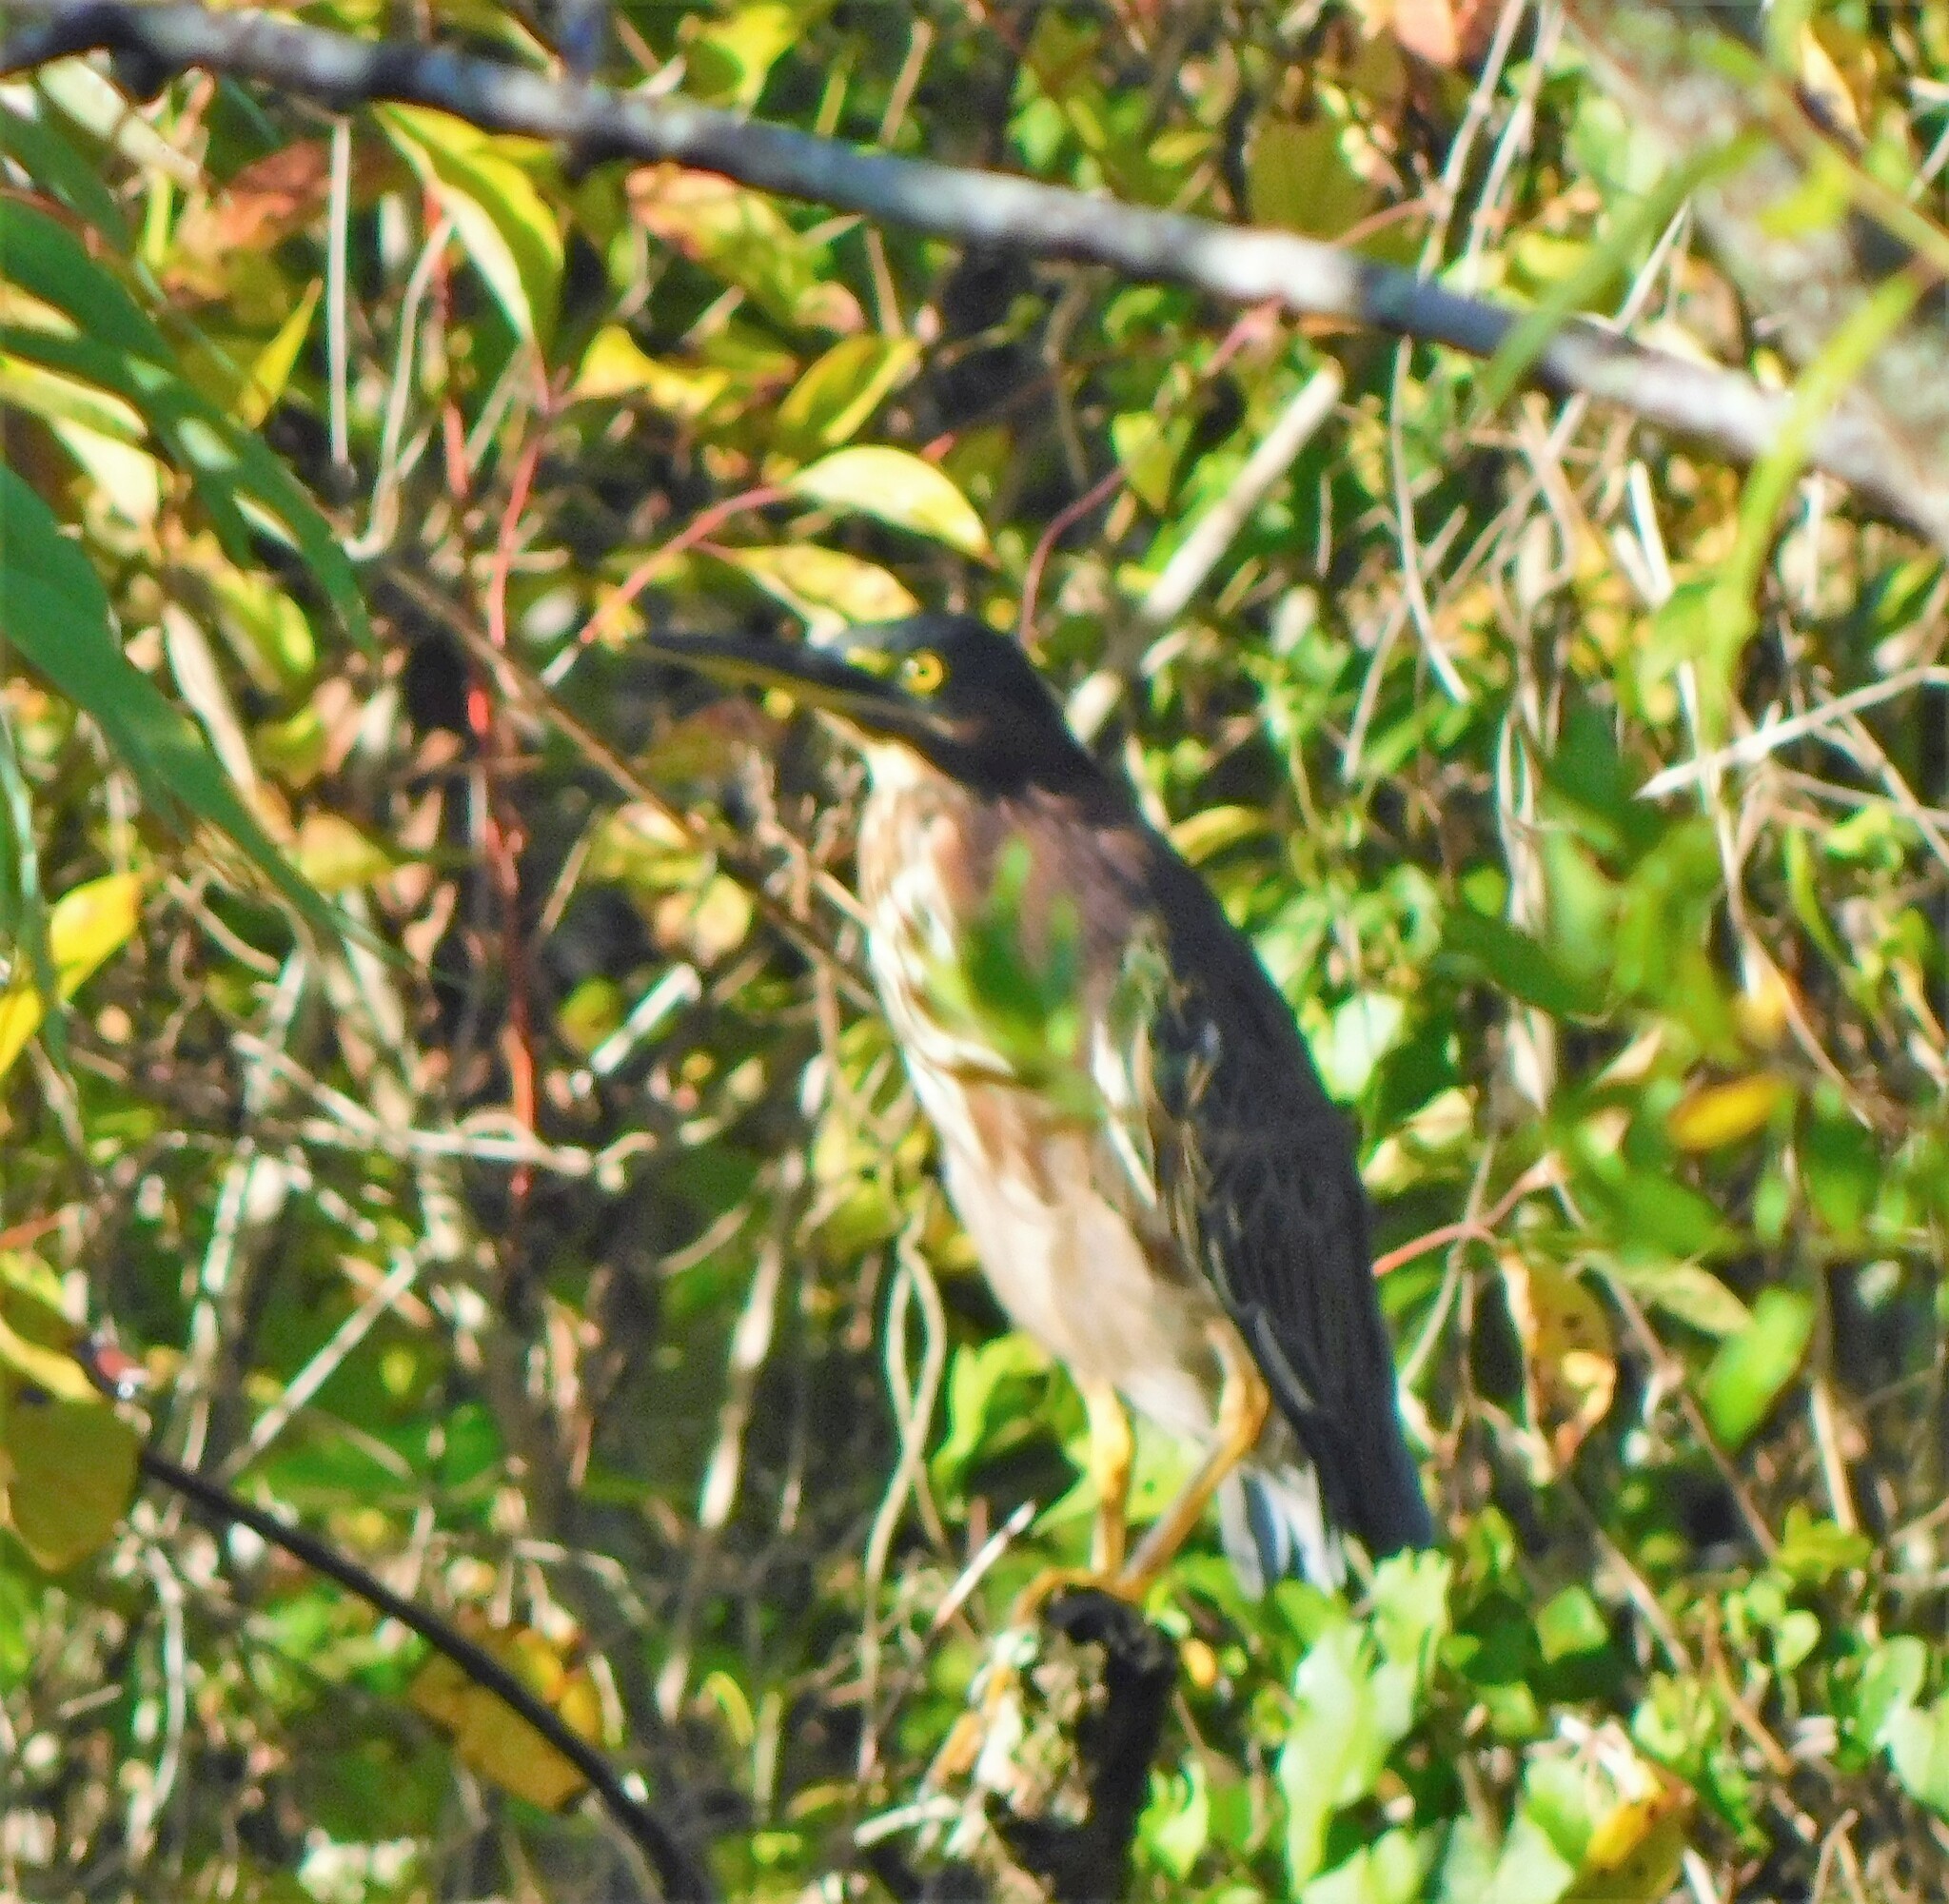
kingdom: Animalia
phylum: Chordata
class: Aves
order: Pelecaniformes
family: Ardeidae
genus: Butorides
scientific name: Butorides virescens
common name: Green heron
